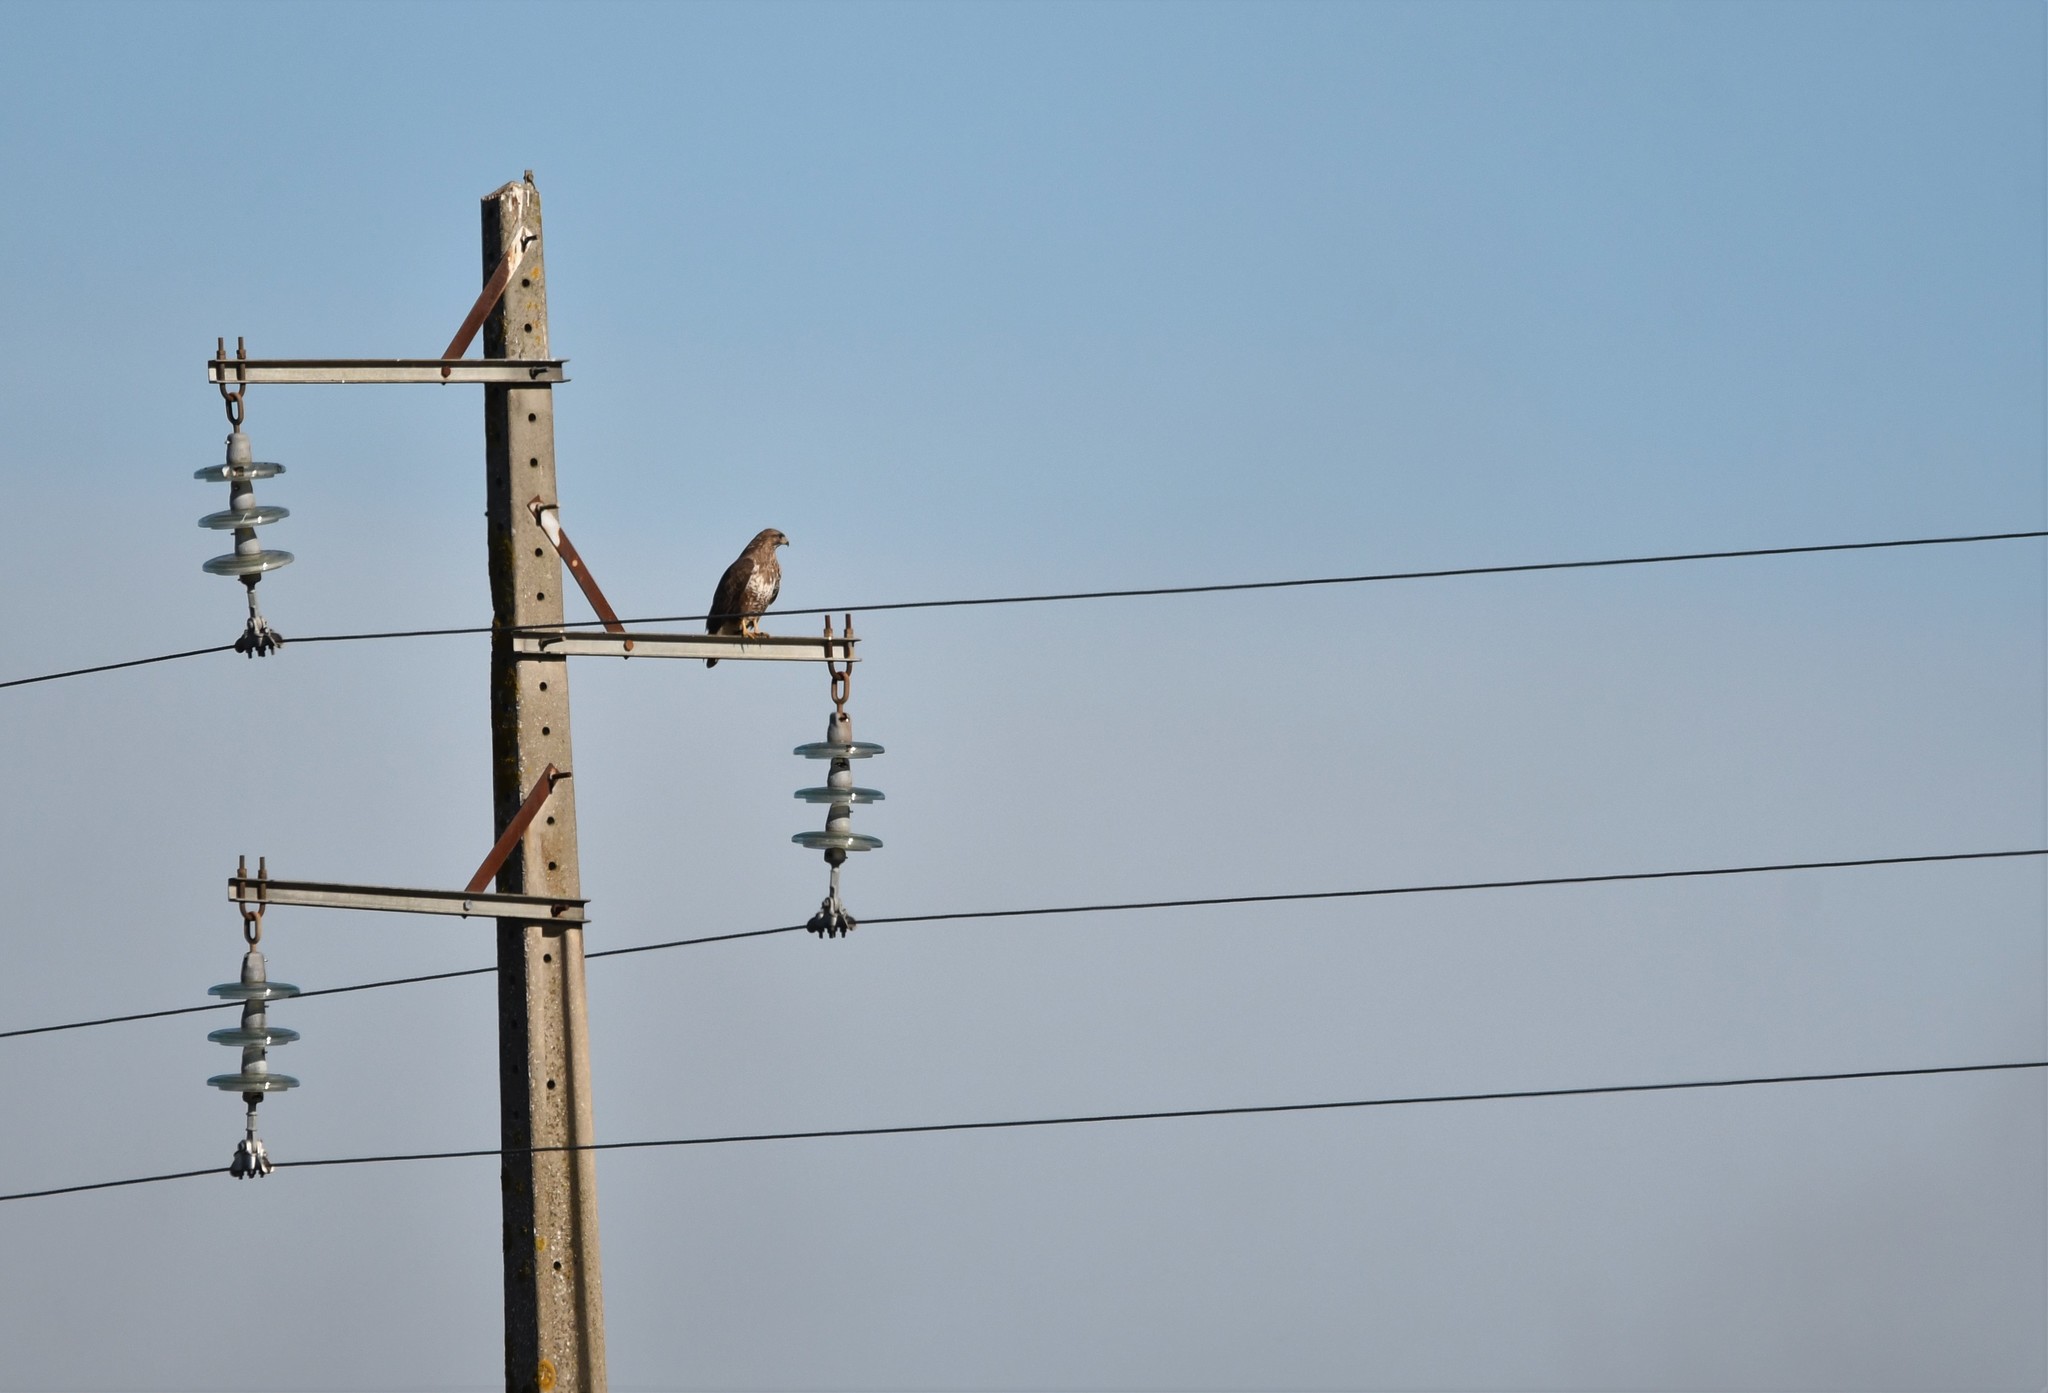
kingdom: Animalia
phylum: Chordata
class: Aves
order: Accipitriformes
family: Accipitridae
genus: Buteo
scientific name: Buteo buteo
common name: Common buzzard
